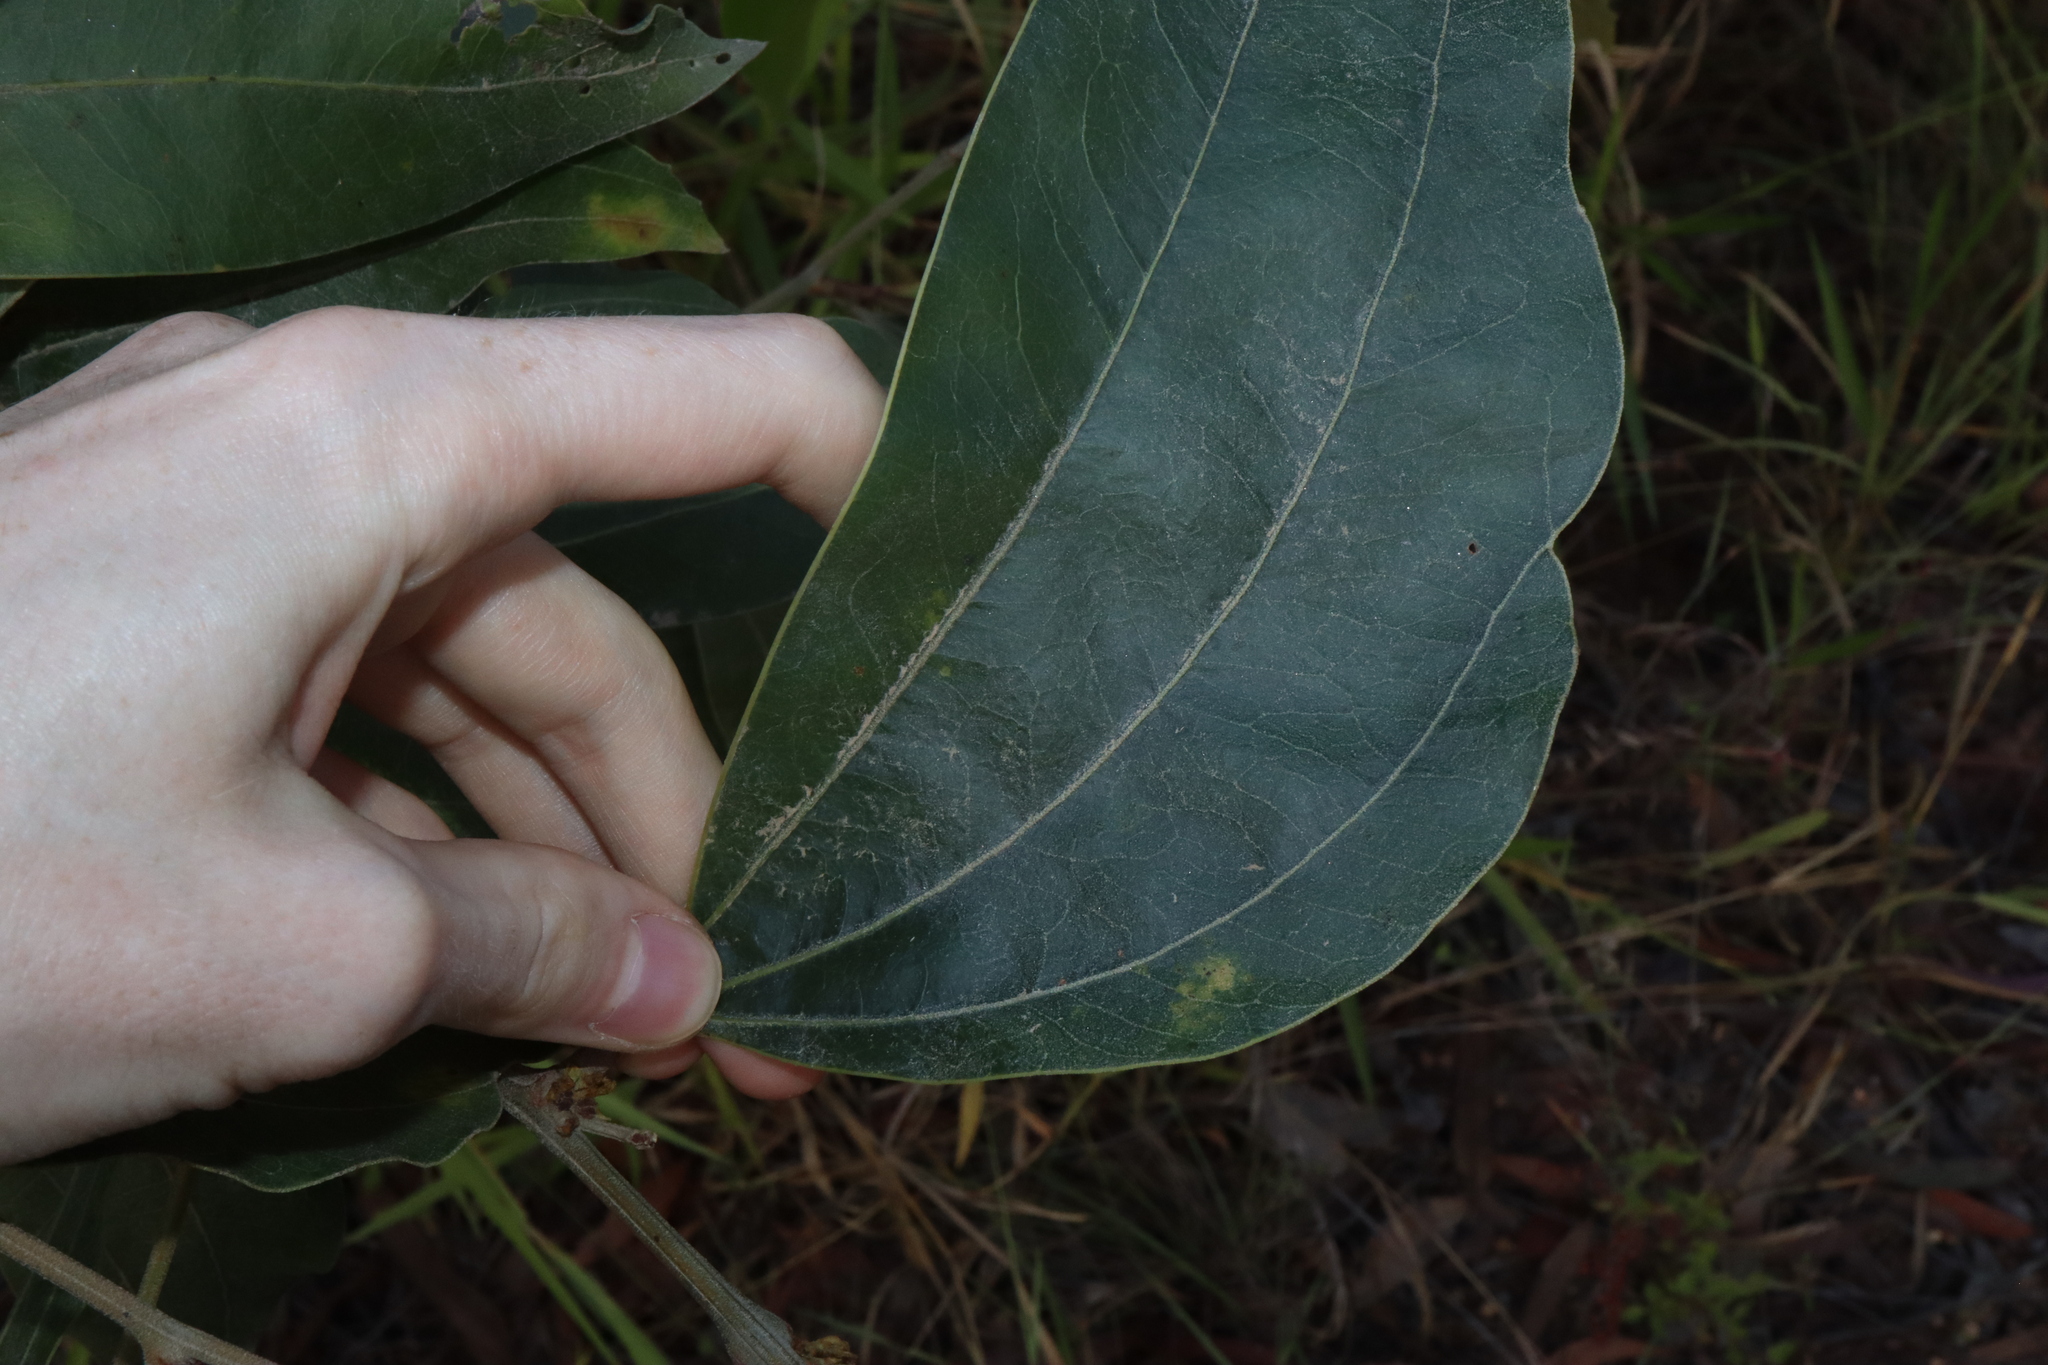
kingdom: Plantae
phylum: Tracheophyta
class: Magnoliopsida
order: Fabales
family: Fabaceae
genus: Acacia
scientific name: Acacia flavescens
